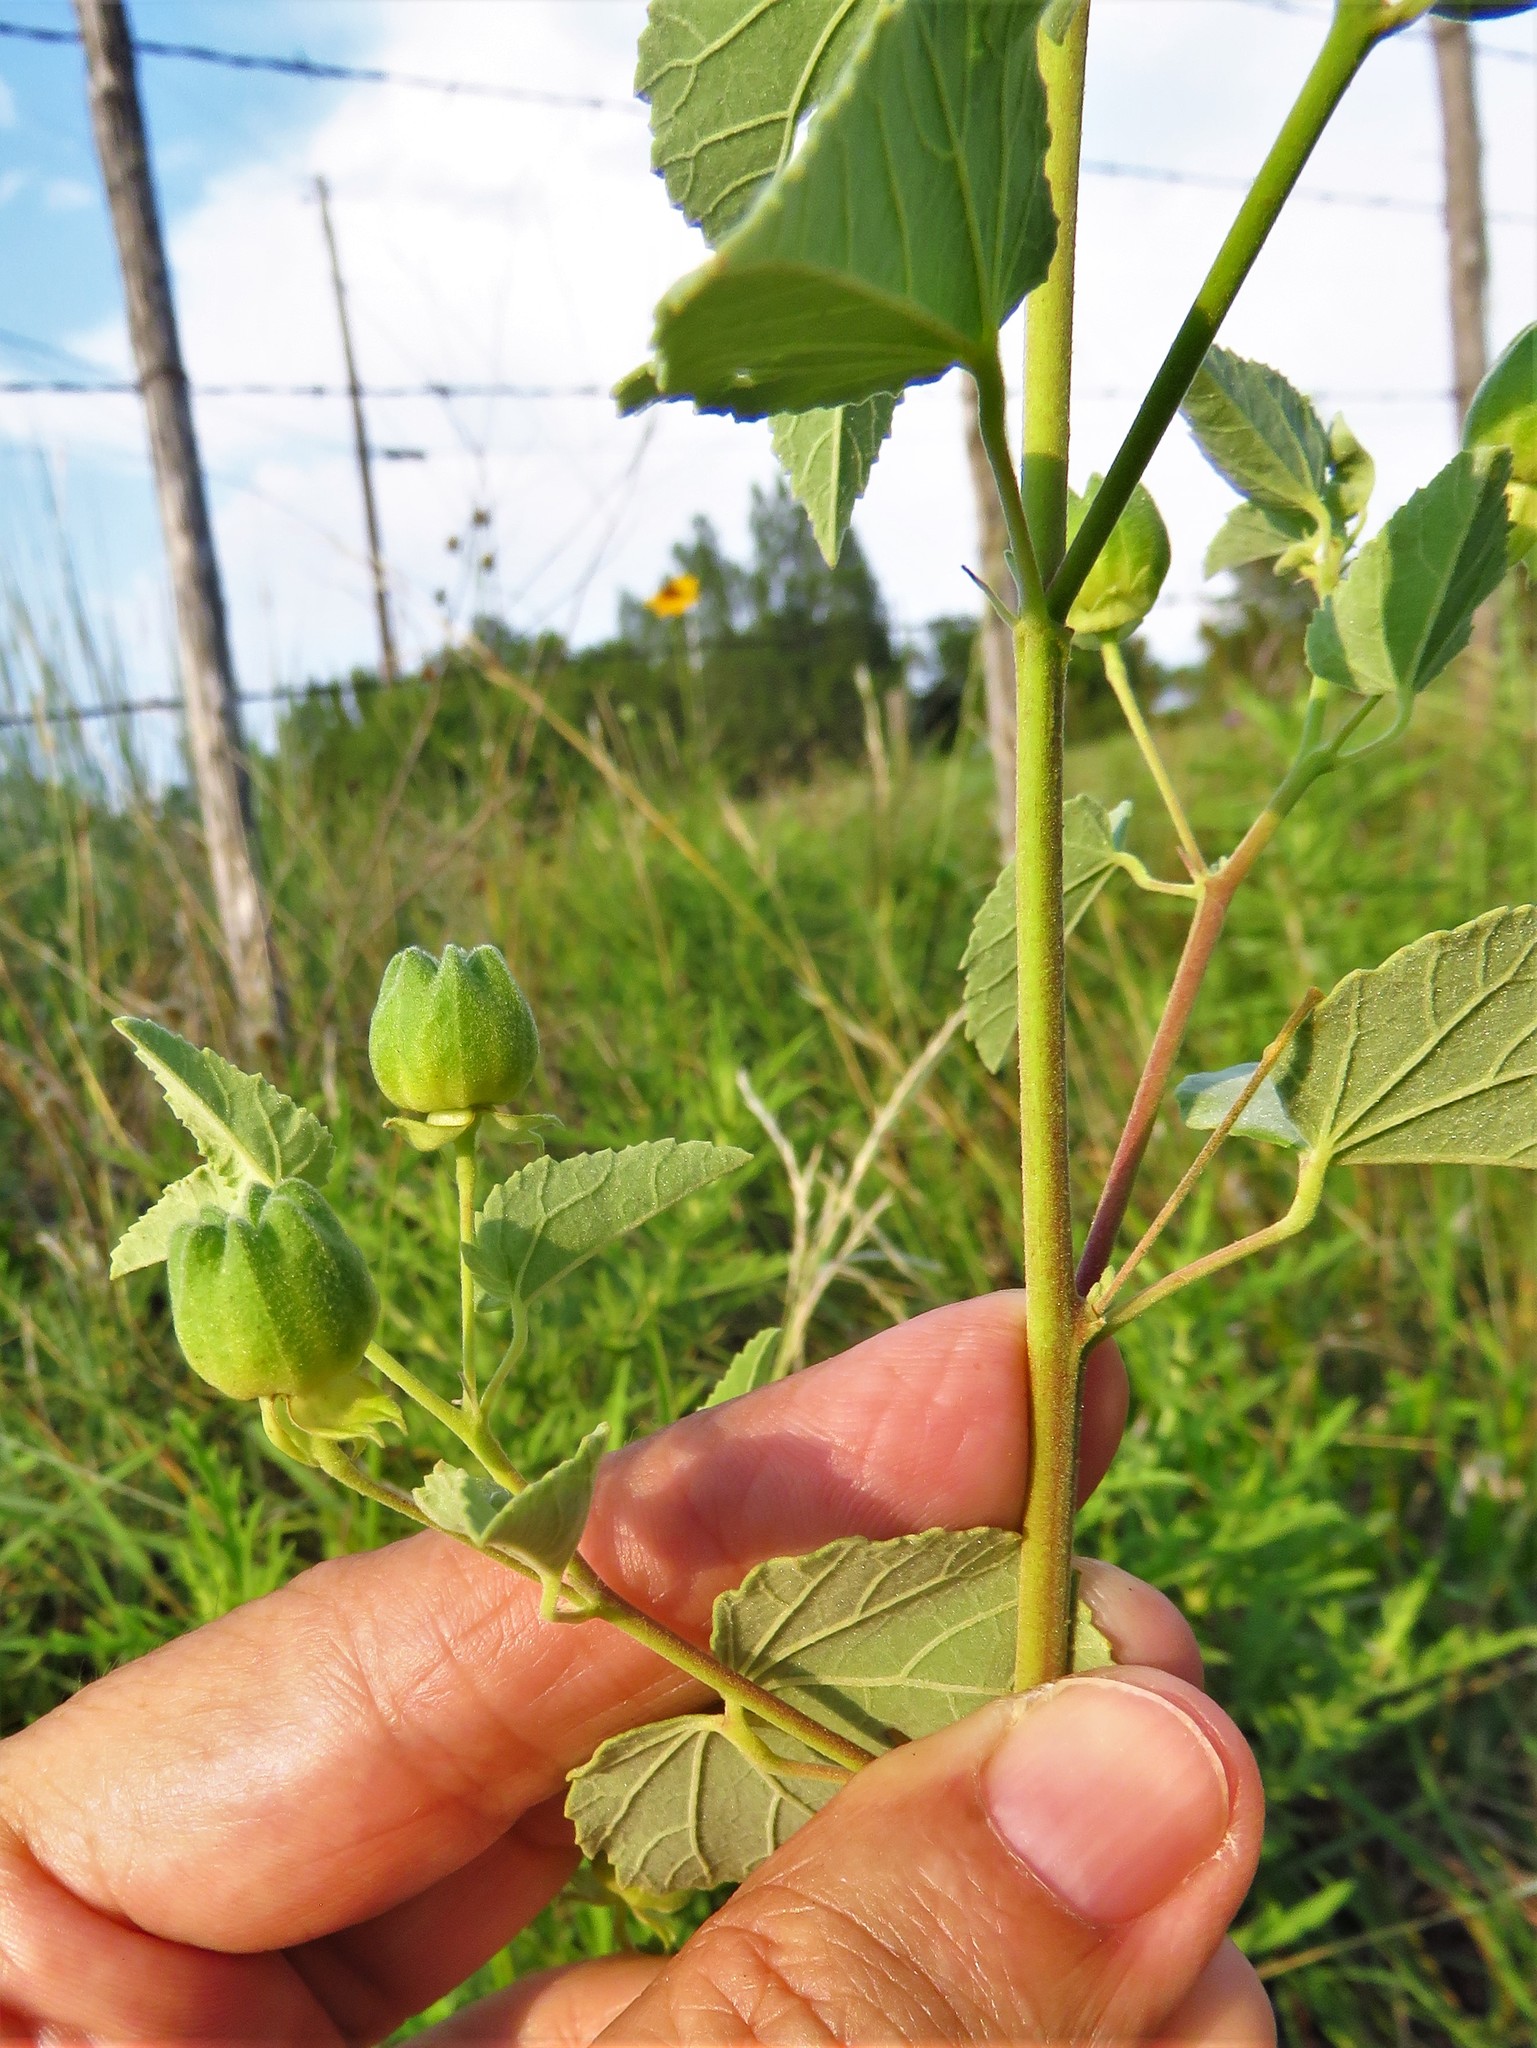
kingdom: Plantae
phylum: Tracheophyta
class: Magnoliopsida
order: Malvales
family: Malvaceae
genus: Abutilon
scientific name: Abutilon fruticosum
